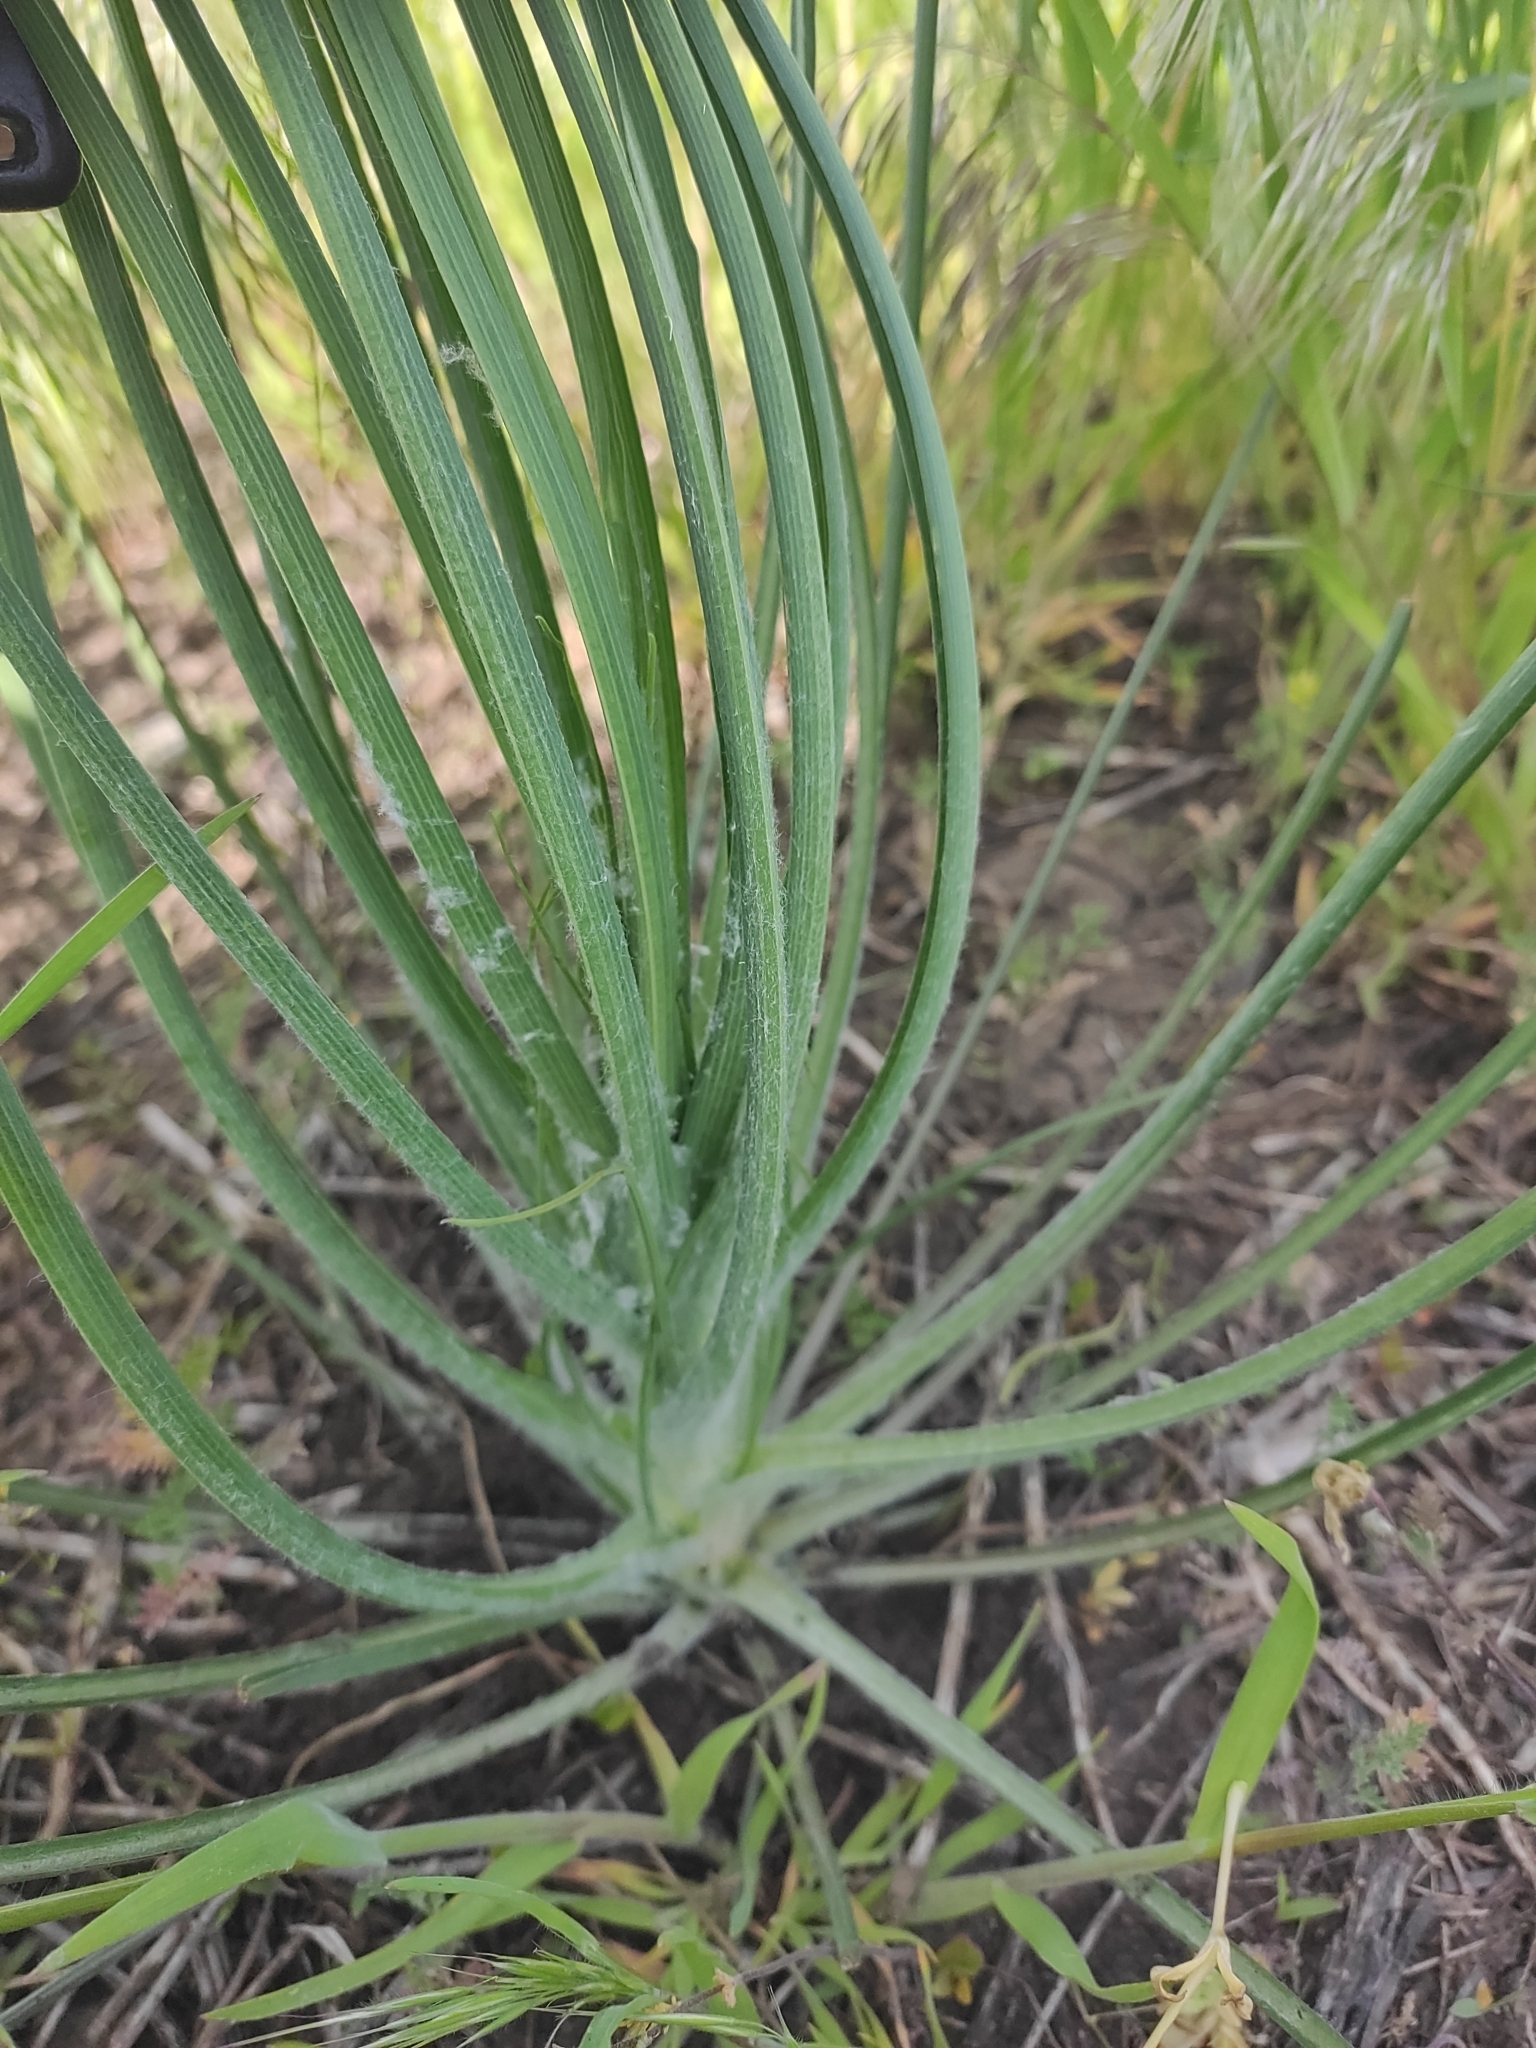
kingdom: Plantae
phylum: Tracheophyta
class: Magnoliopsida
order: Asterales
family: Asteraceae
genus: Candollea
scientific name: Candollea mollis
